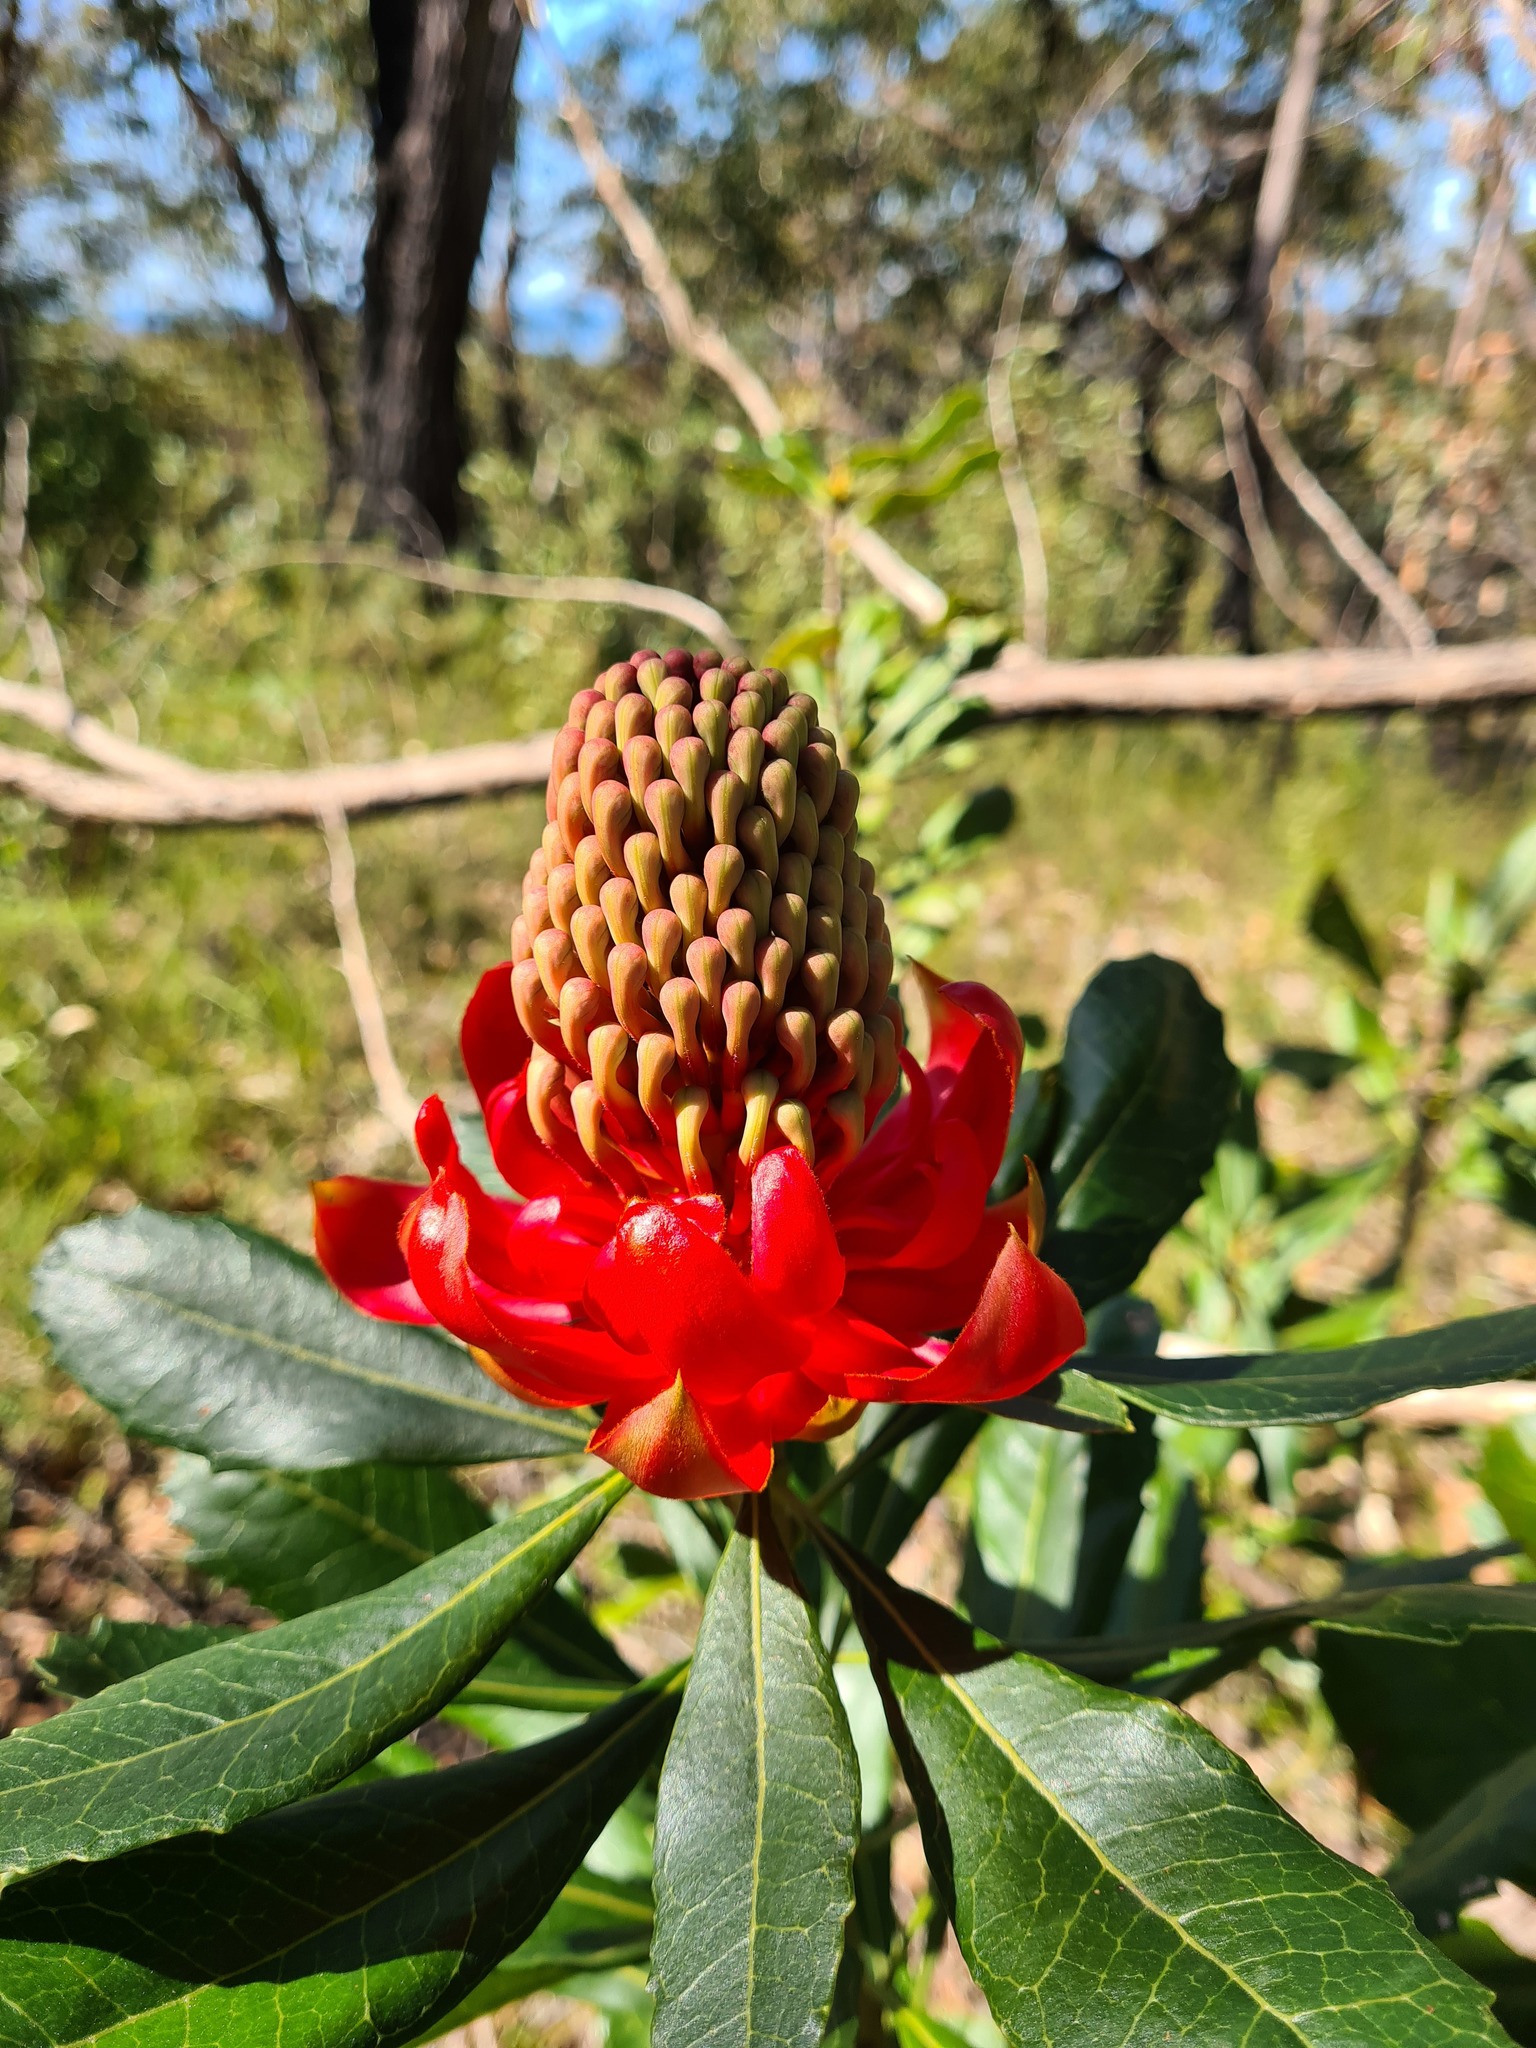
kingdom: Plantae
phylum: Tracheophyta
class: Magnoliopsida
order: Proteales
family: Proteaceae
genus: Telopea
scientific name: Telopea speciosissima
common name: New south wales waratah
